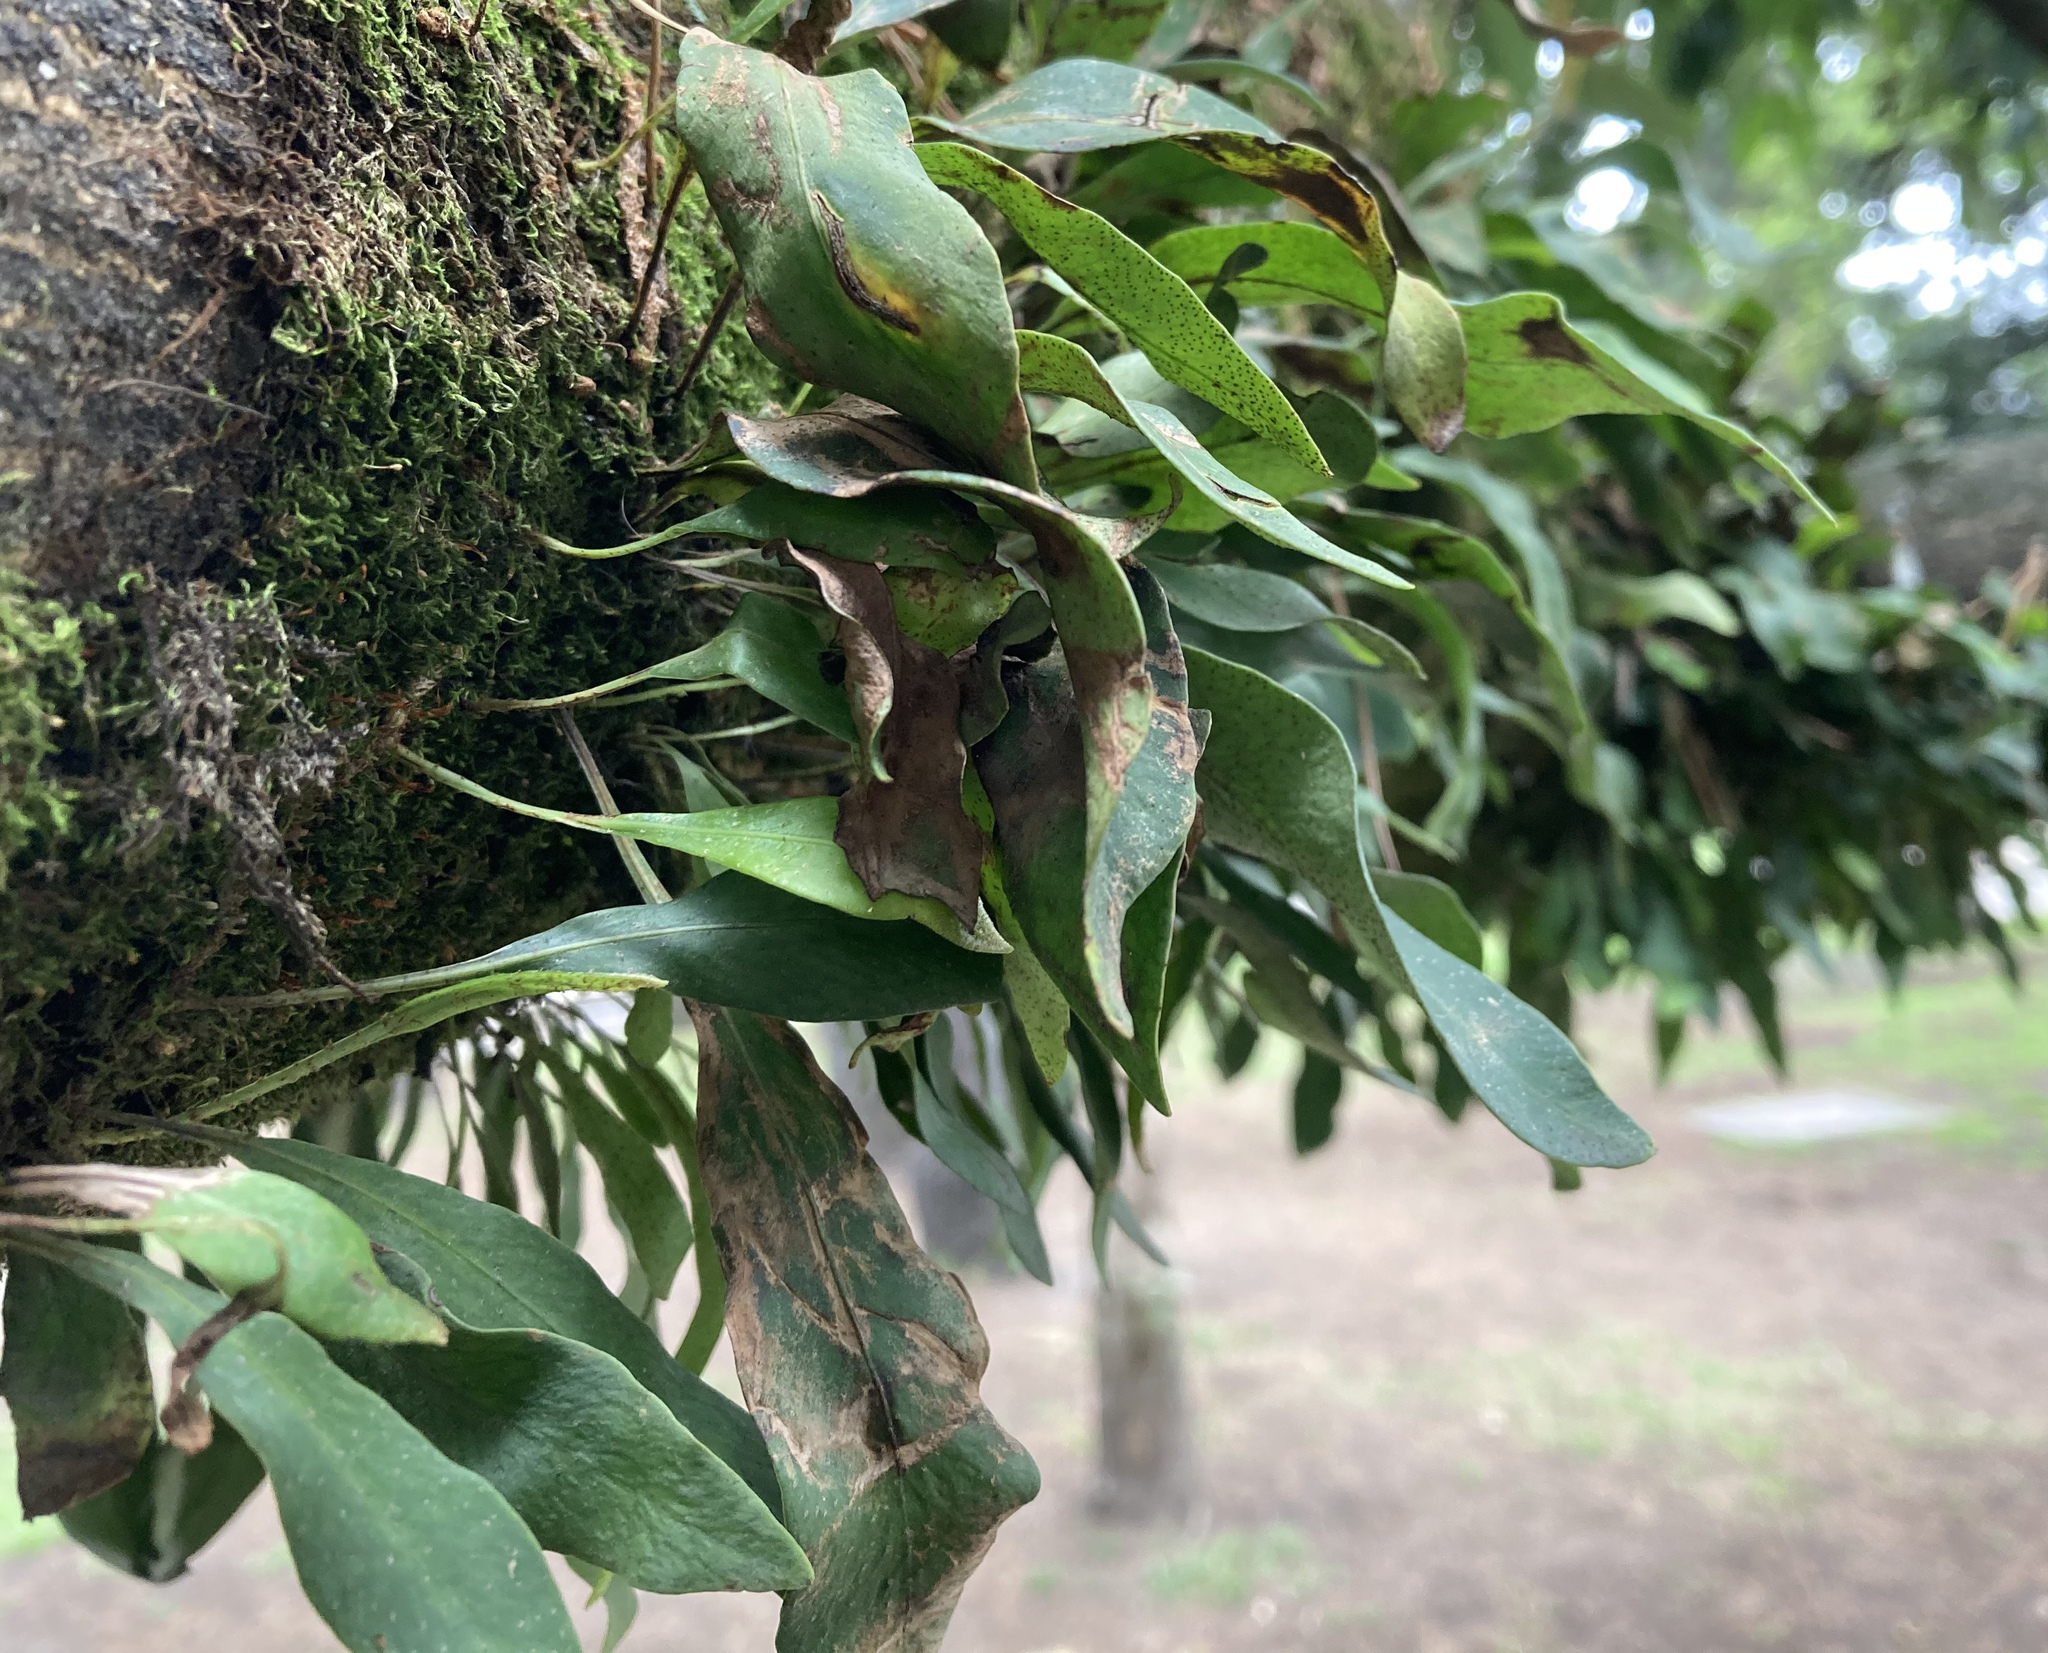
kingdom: Plantae
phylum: Tracheophyta
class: Polypodiopsida
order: Polypodiales
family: Polypodiaceae
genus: Pleopeltis
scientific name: Pleopeltis macrocarpa
